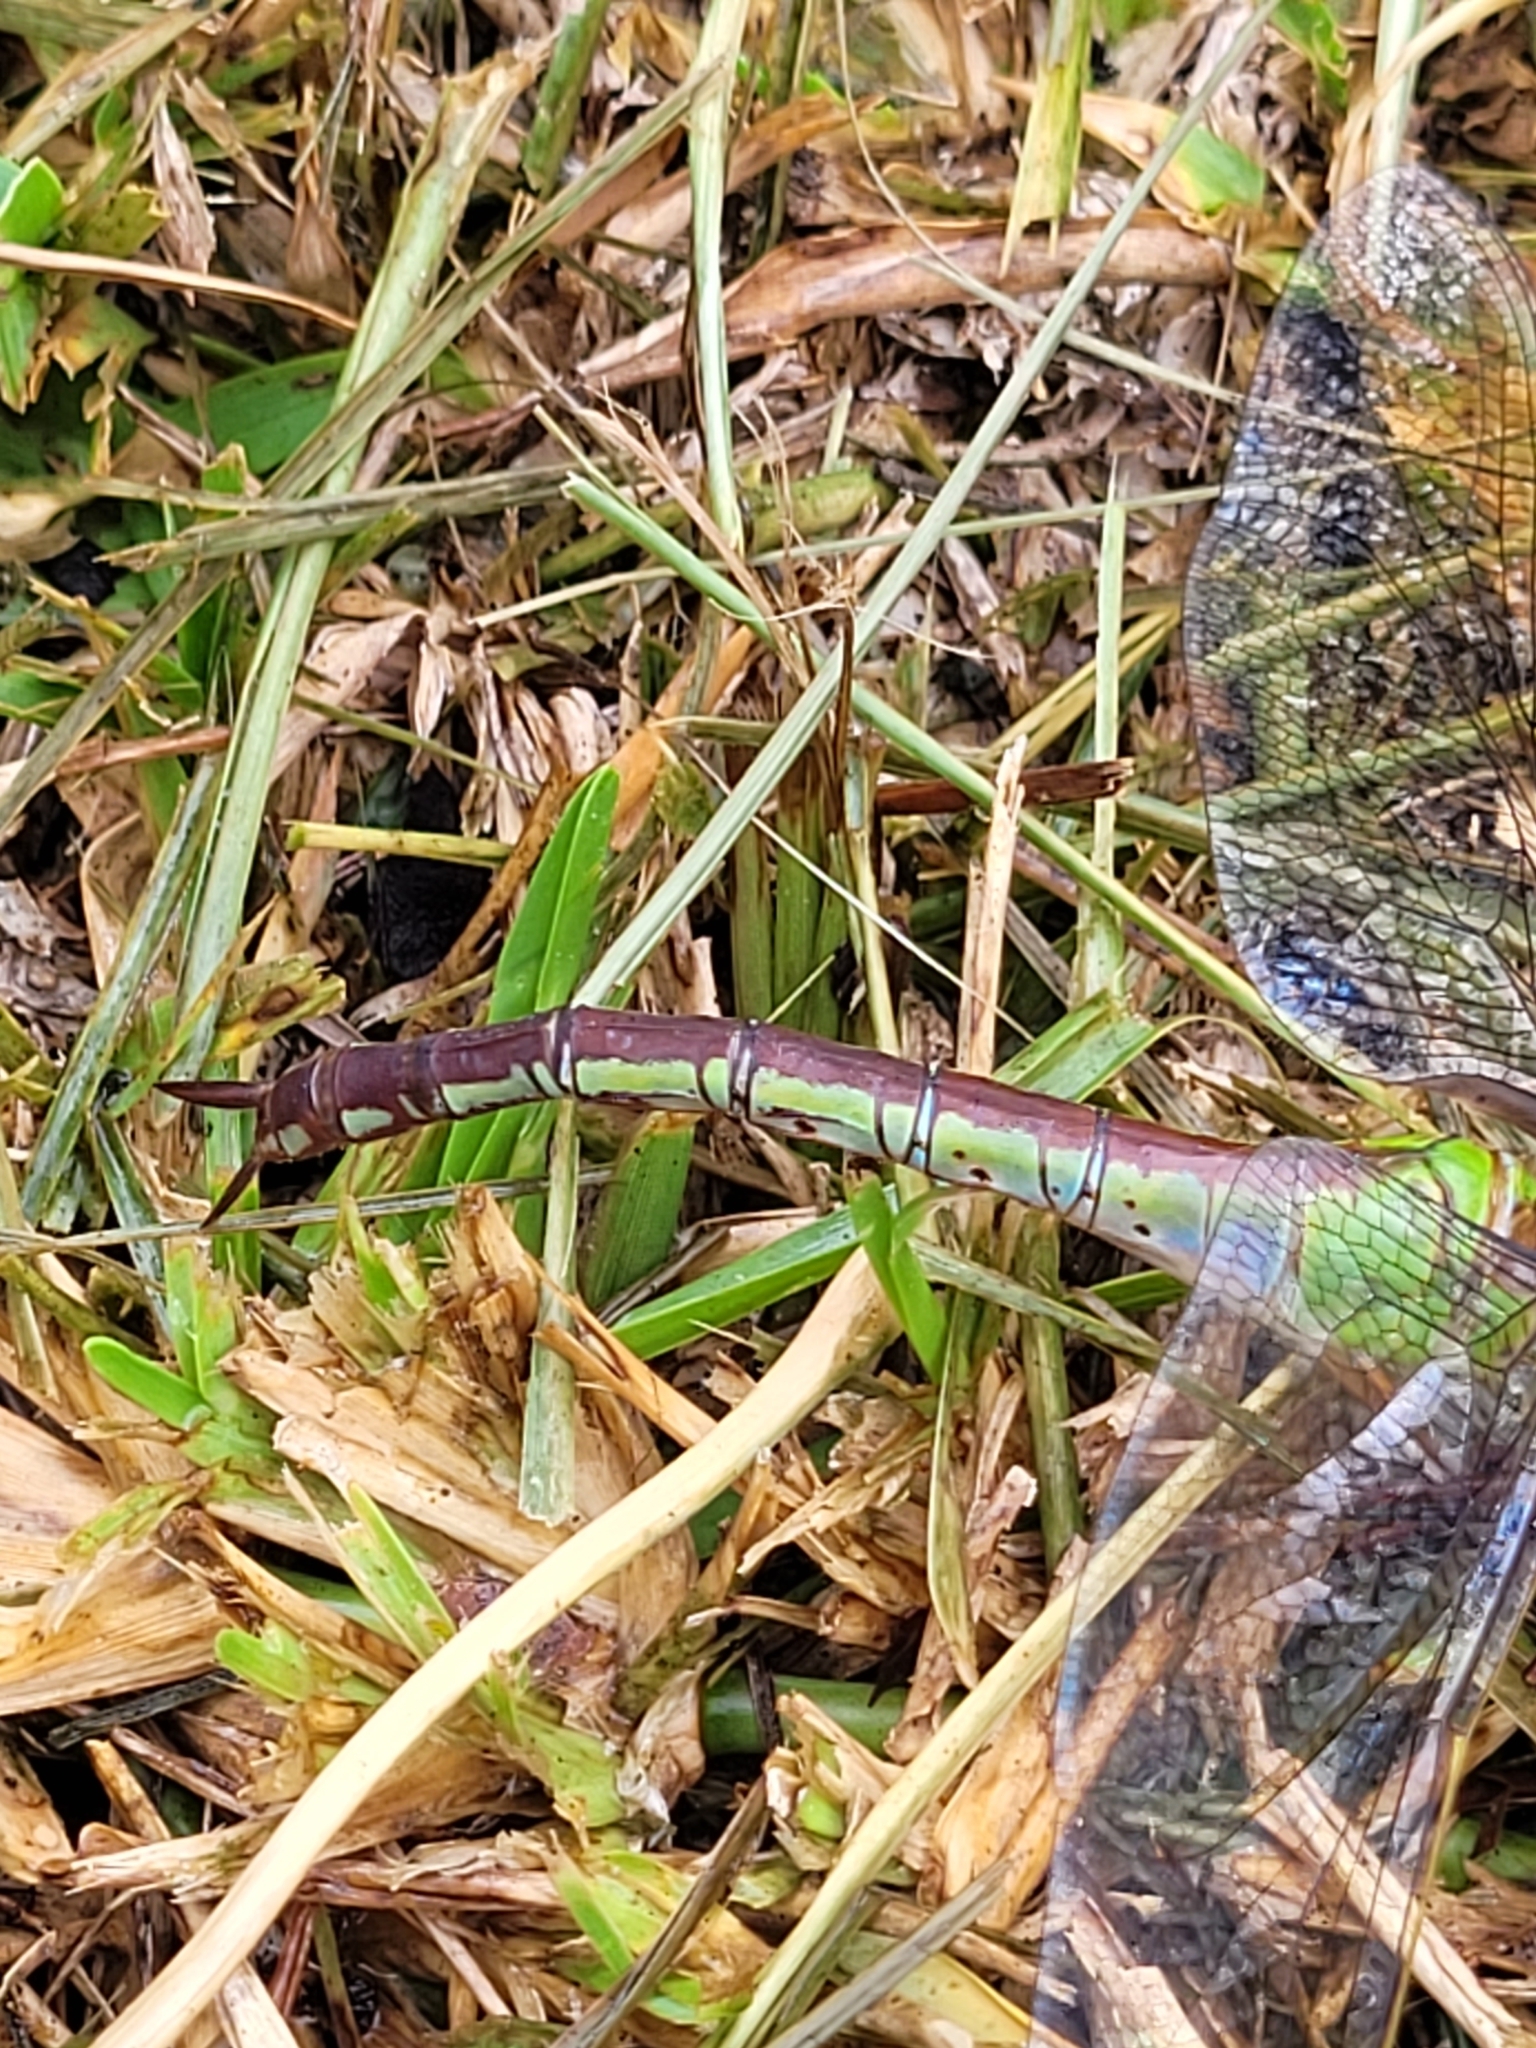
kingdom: Animalia
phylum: Arthropoda
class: Insecta
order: Odonata
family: Aeshnidae
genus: Anax
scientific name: Anax junius
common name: Common green darner
